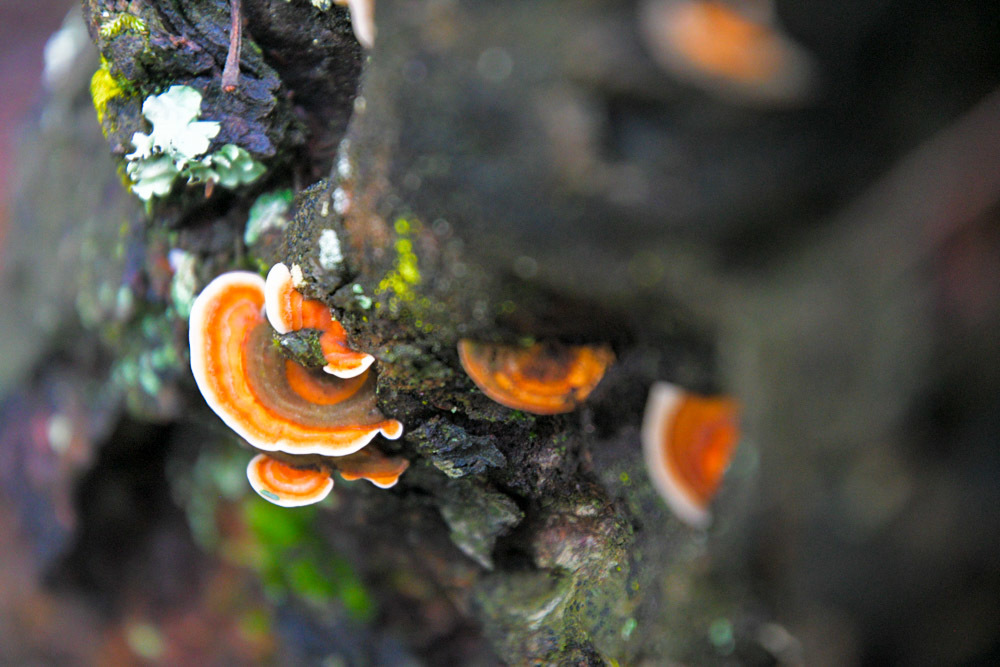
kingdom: Fungi
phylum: Basidiomycota
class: Agaricomycetes
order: Russulales
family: Stereaceae
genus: Stereum
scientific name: Stereum versicolor
